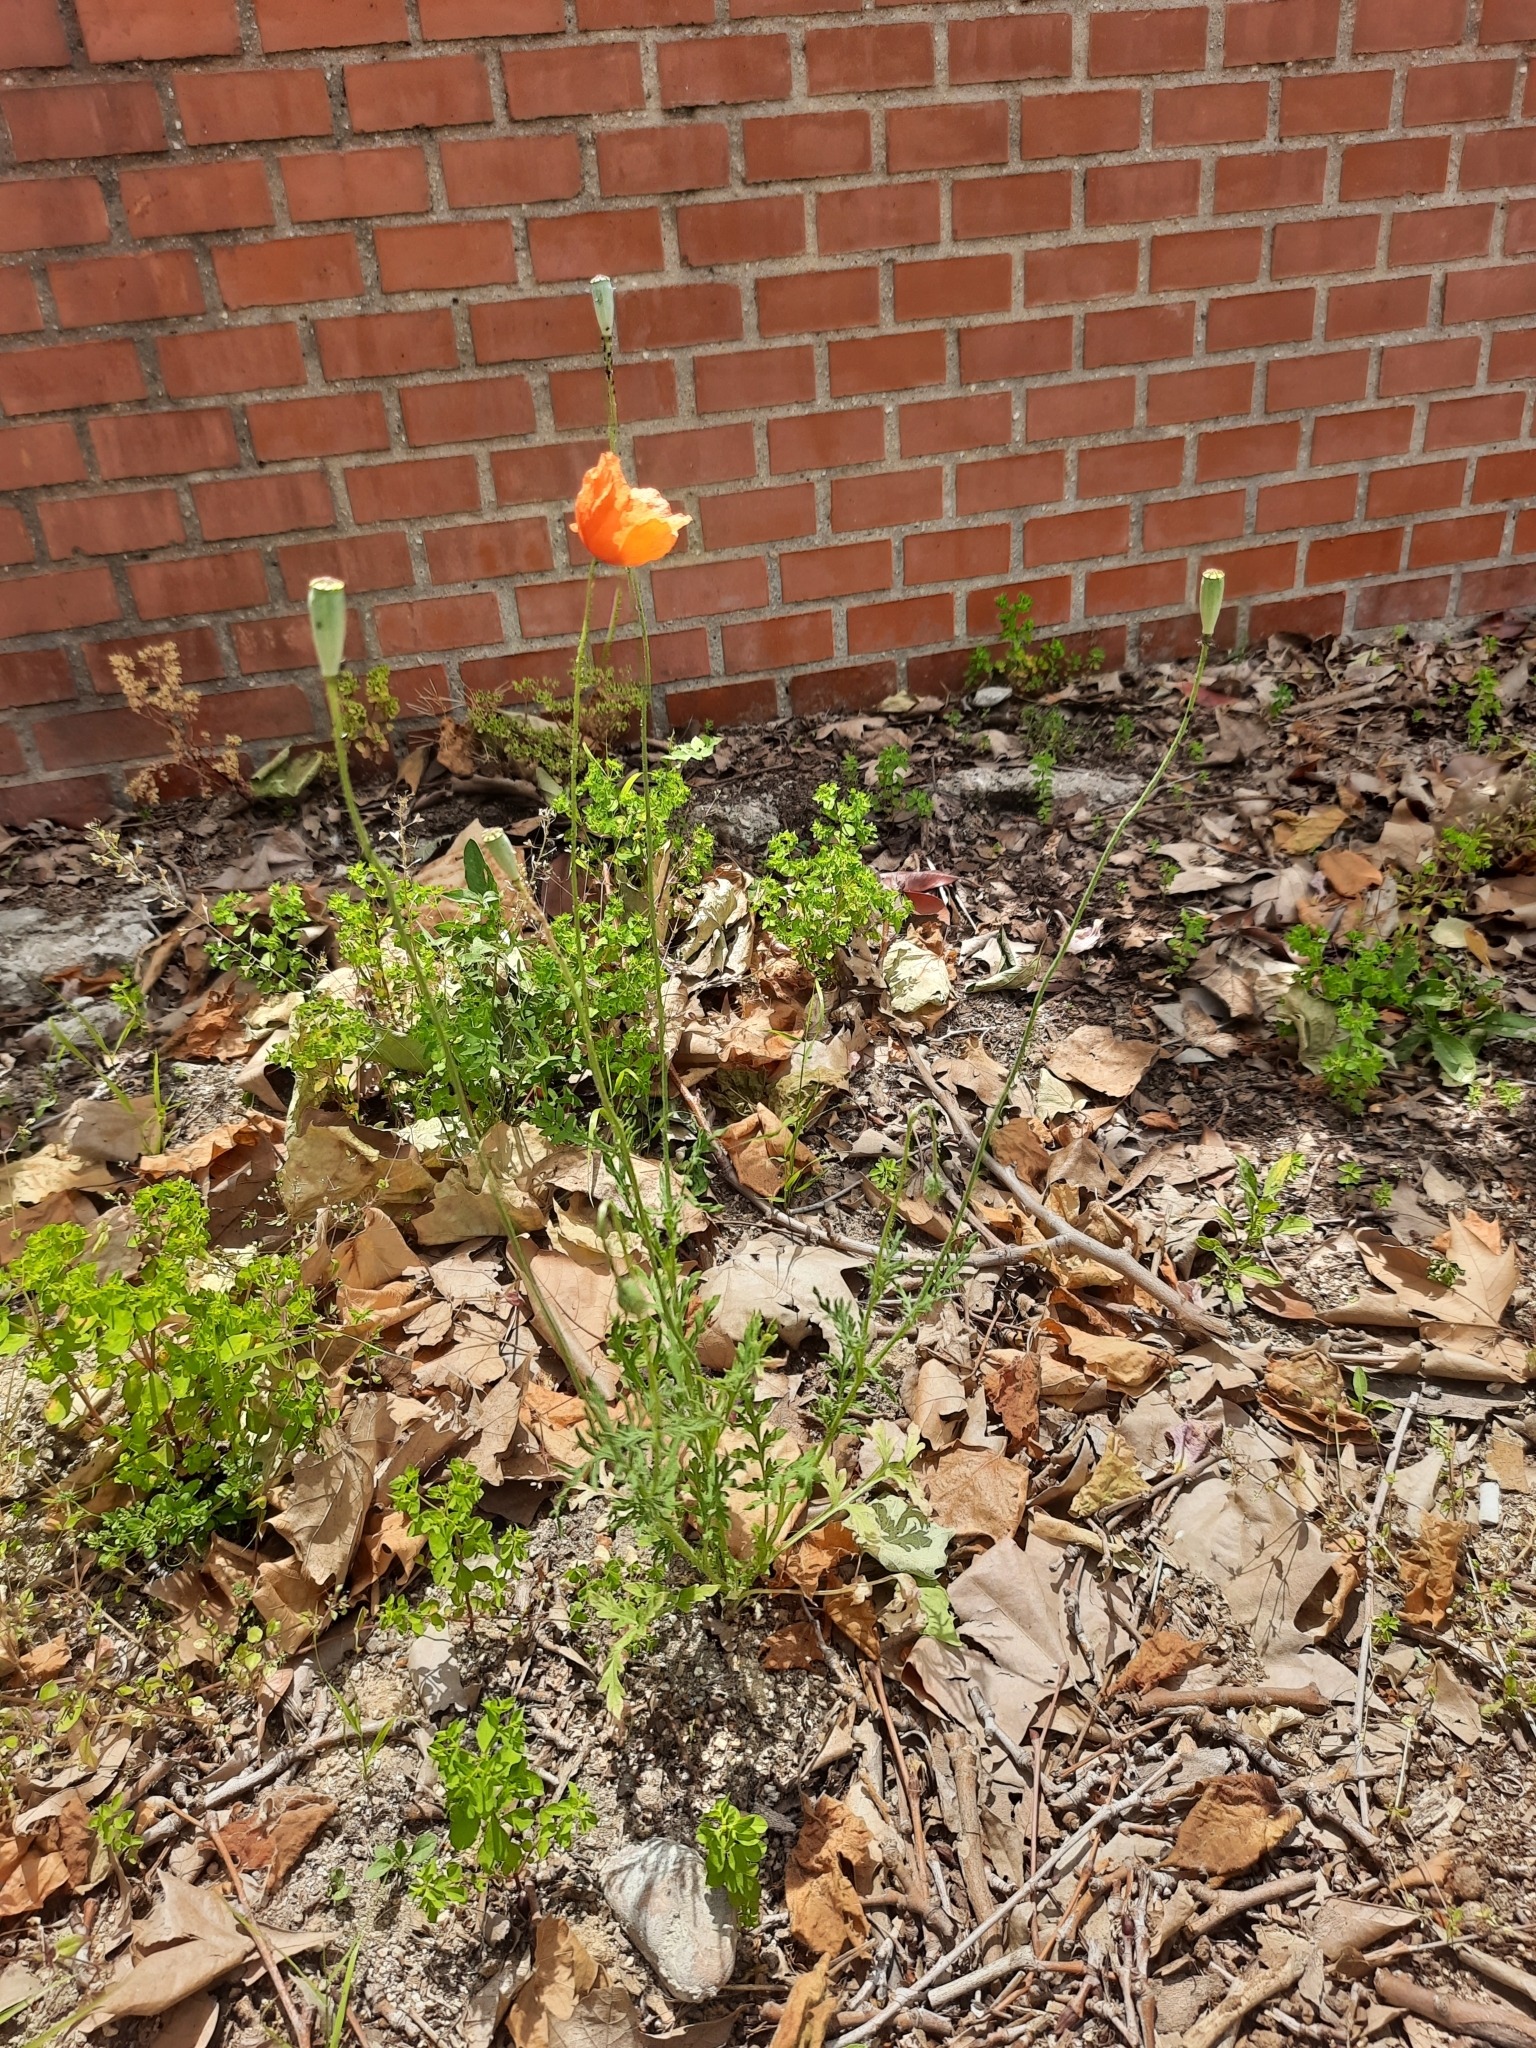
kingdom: Plantae
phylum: Tracheophyta
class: Magnoliopsida
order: Ranunculales
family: Papaveraceae
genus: Papaver
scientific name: Papaver dubium
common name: Long-headed poppy
